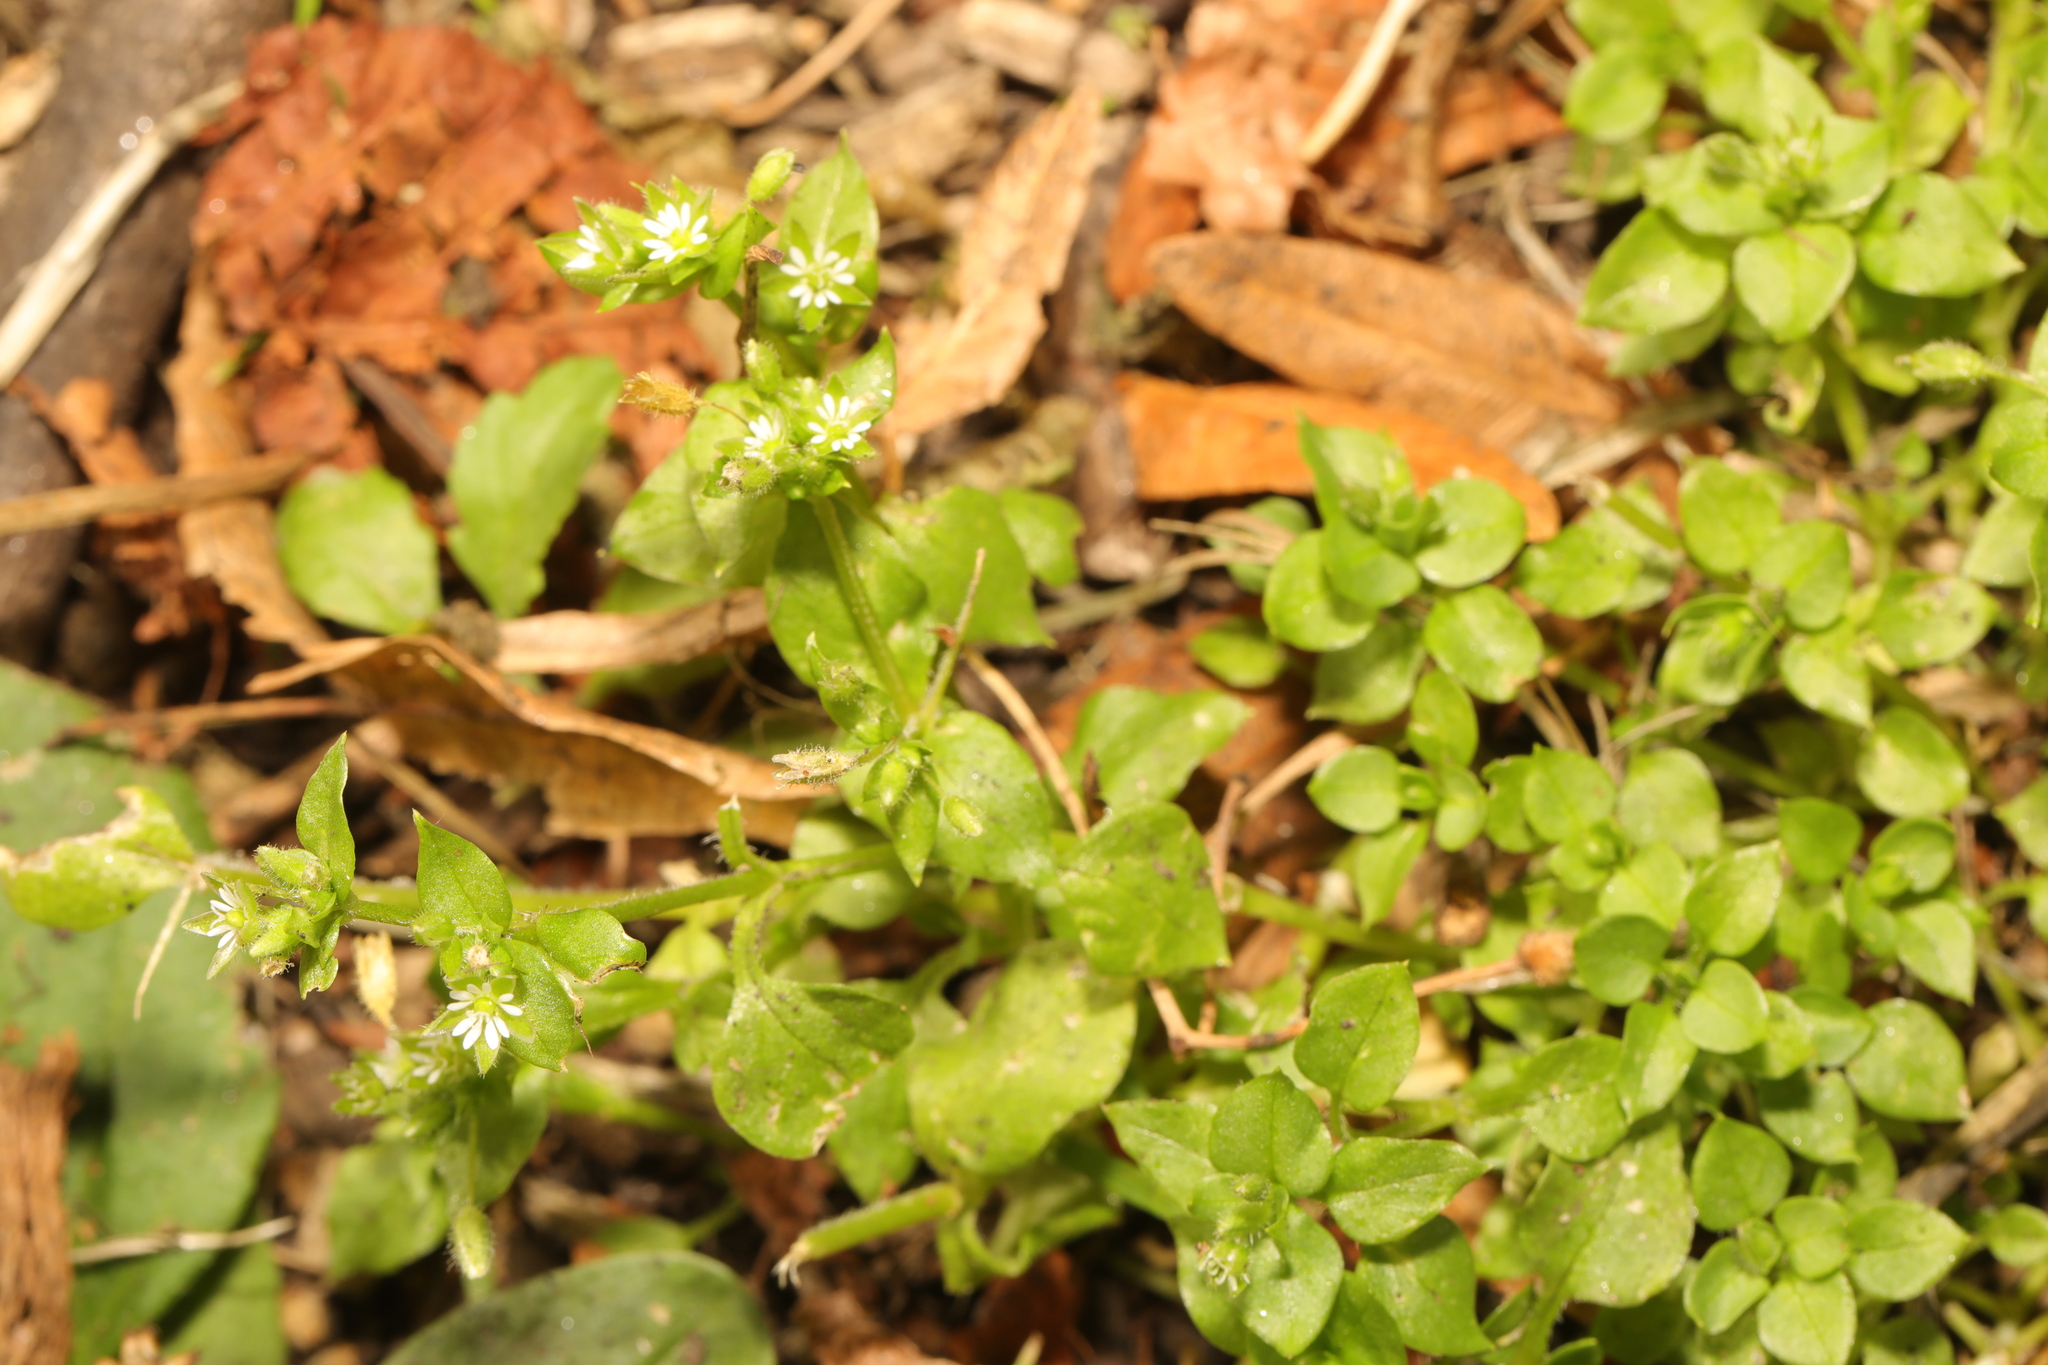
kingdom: Plantae
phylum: Tracheophyta
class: Magnoliopsida
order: Caryophyllales
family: Caryophyllaceae
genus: Stellaria
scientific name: Stellaria media
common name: Common chickweed
